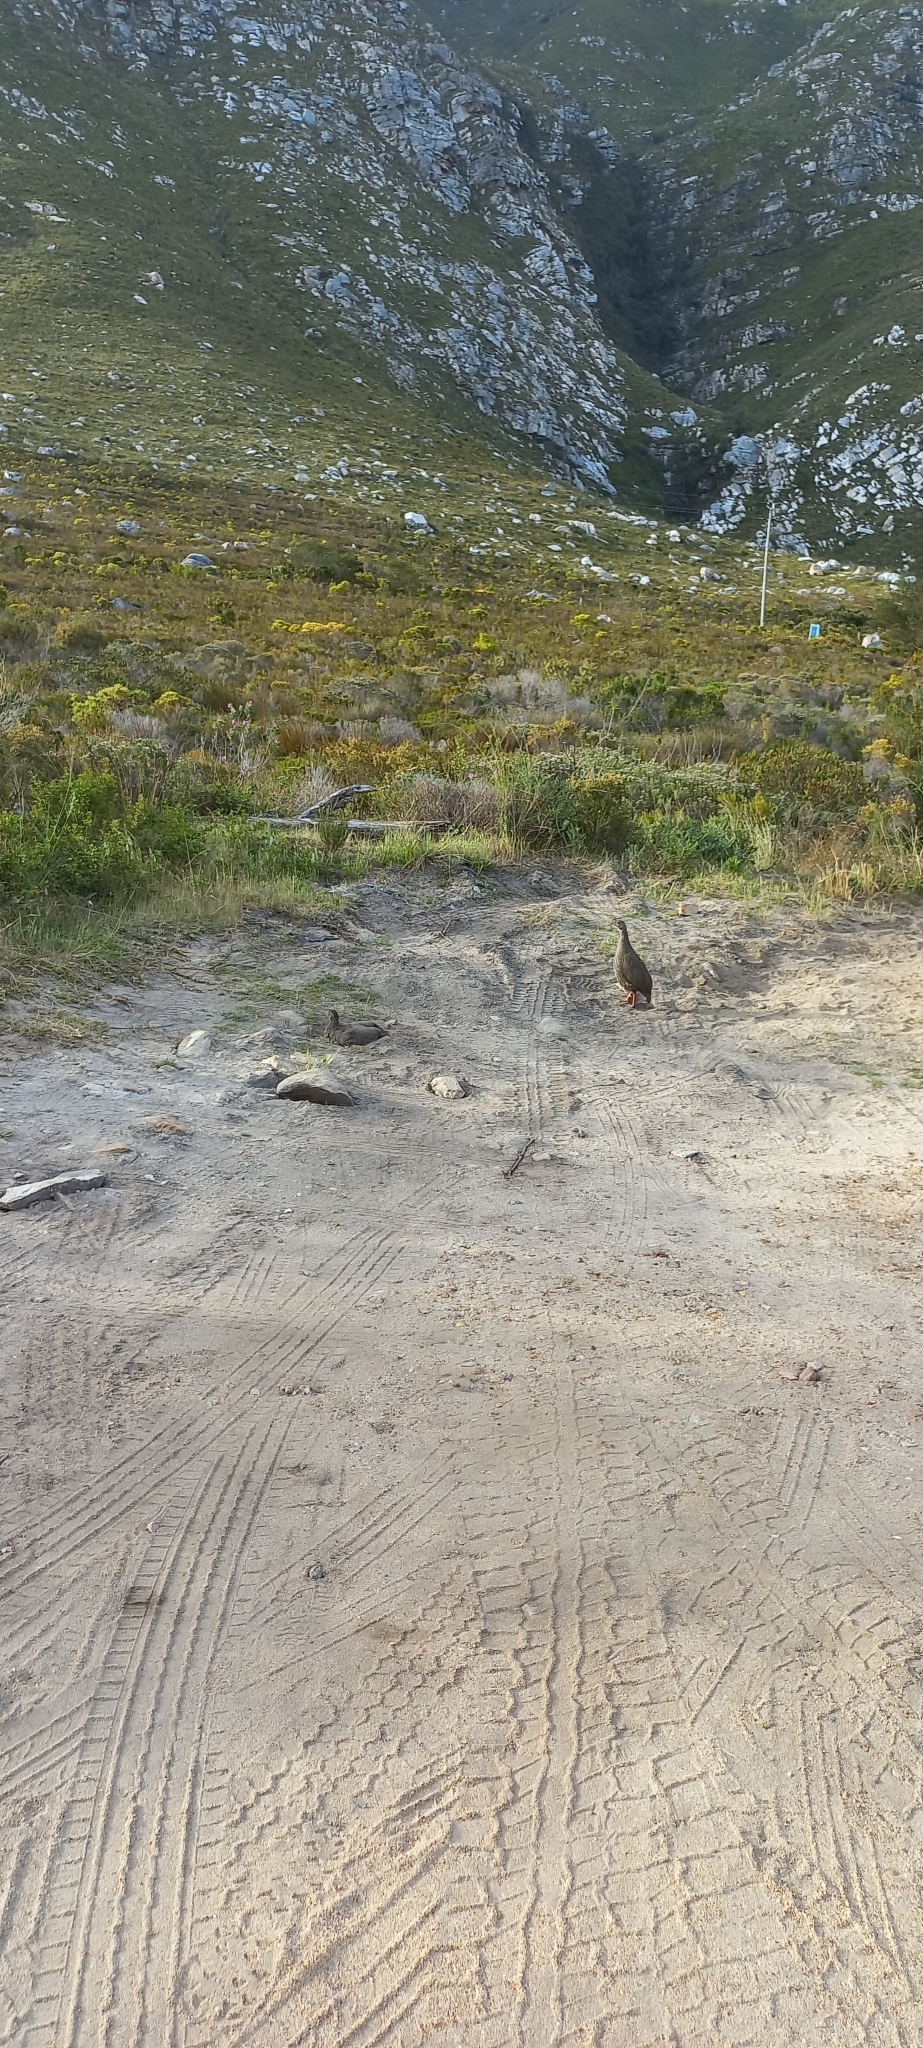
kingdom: Animalia
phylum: Chordata
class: Aves
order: Galliformes
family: Phasianidae
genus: Pternistis
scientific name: Pternistis capensis
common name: Cape spurfowl
